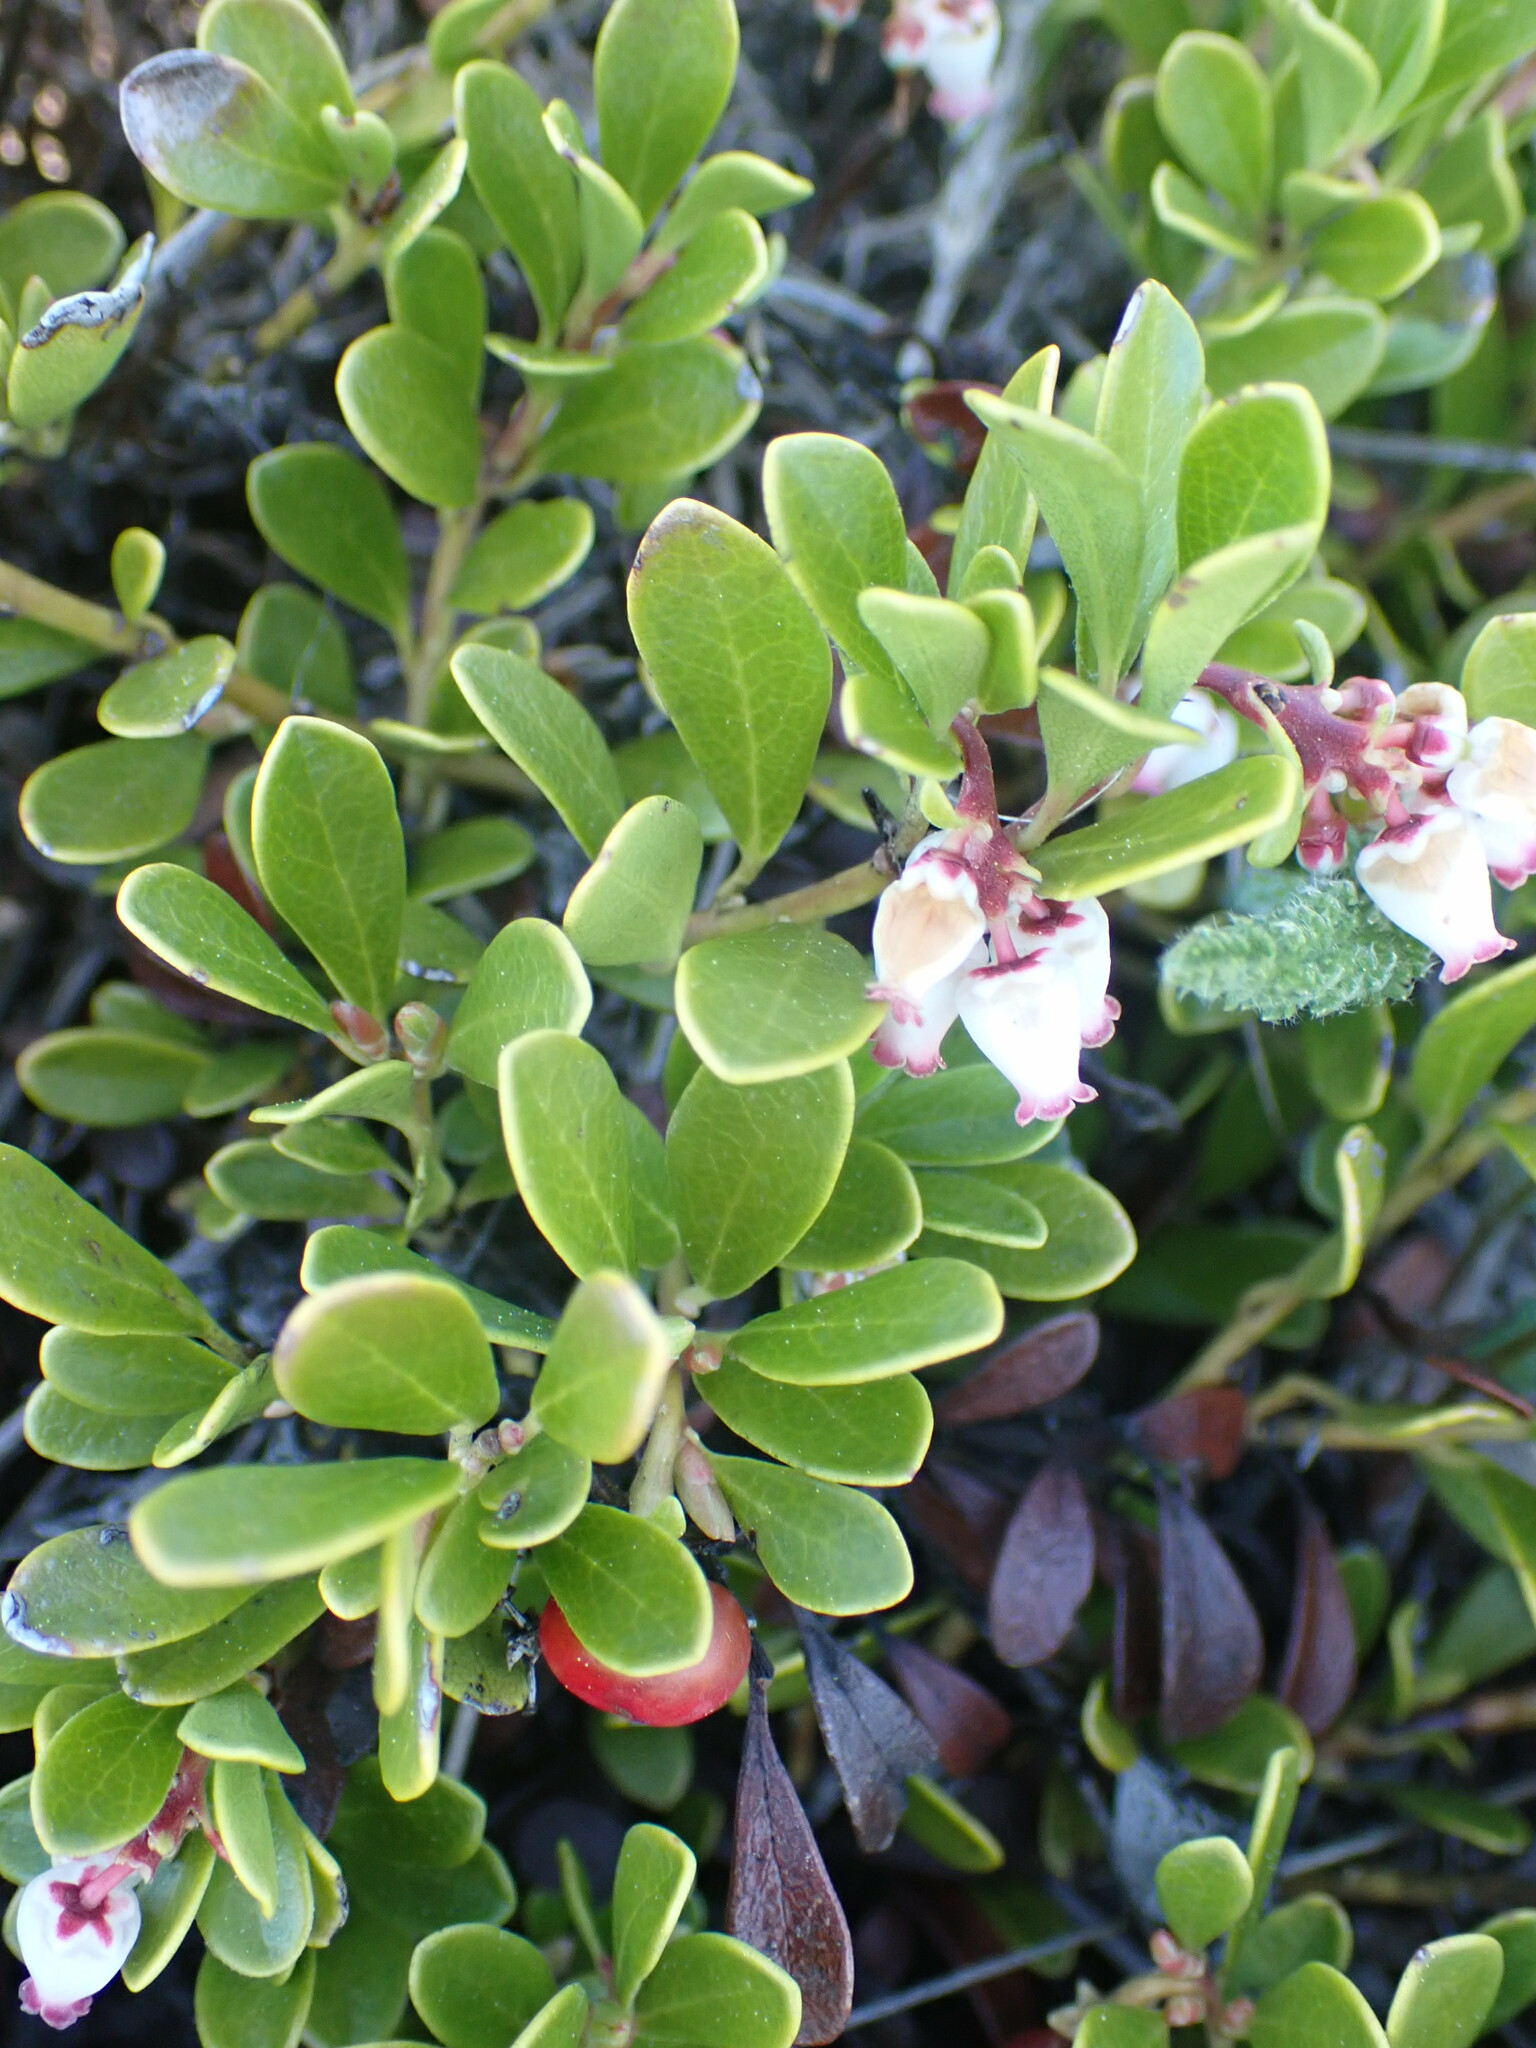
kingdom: Plantae
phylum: Tracheophyta
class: Magnoliopsida
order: Ericales
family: Ericaceae
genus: Arctostaphylos
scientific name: Arctostaphylos uva-ursi
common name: Bearberry
